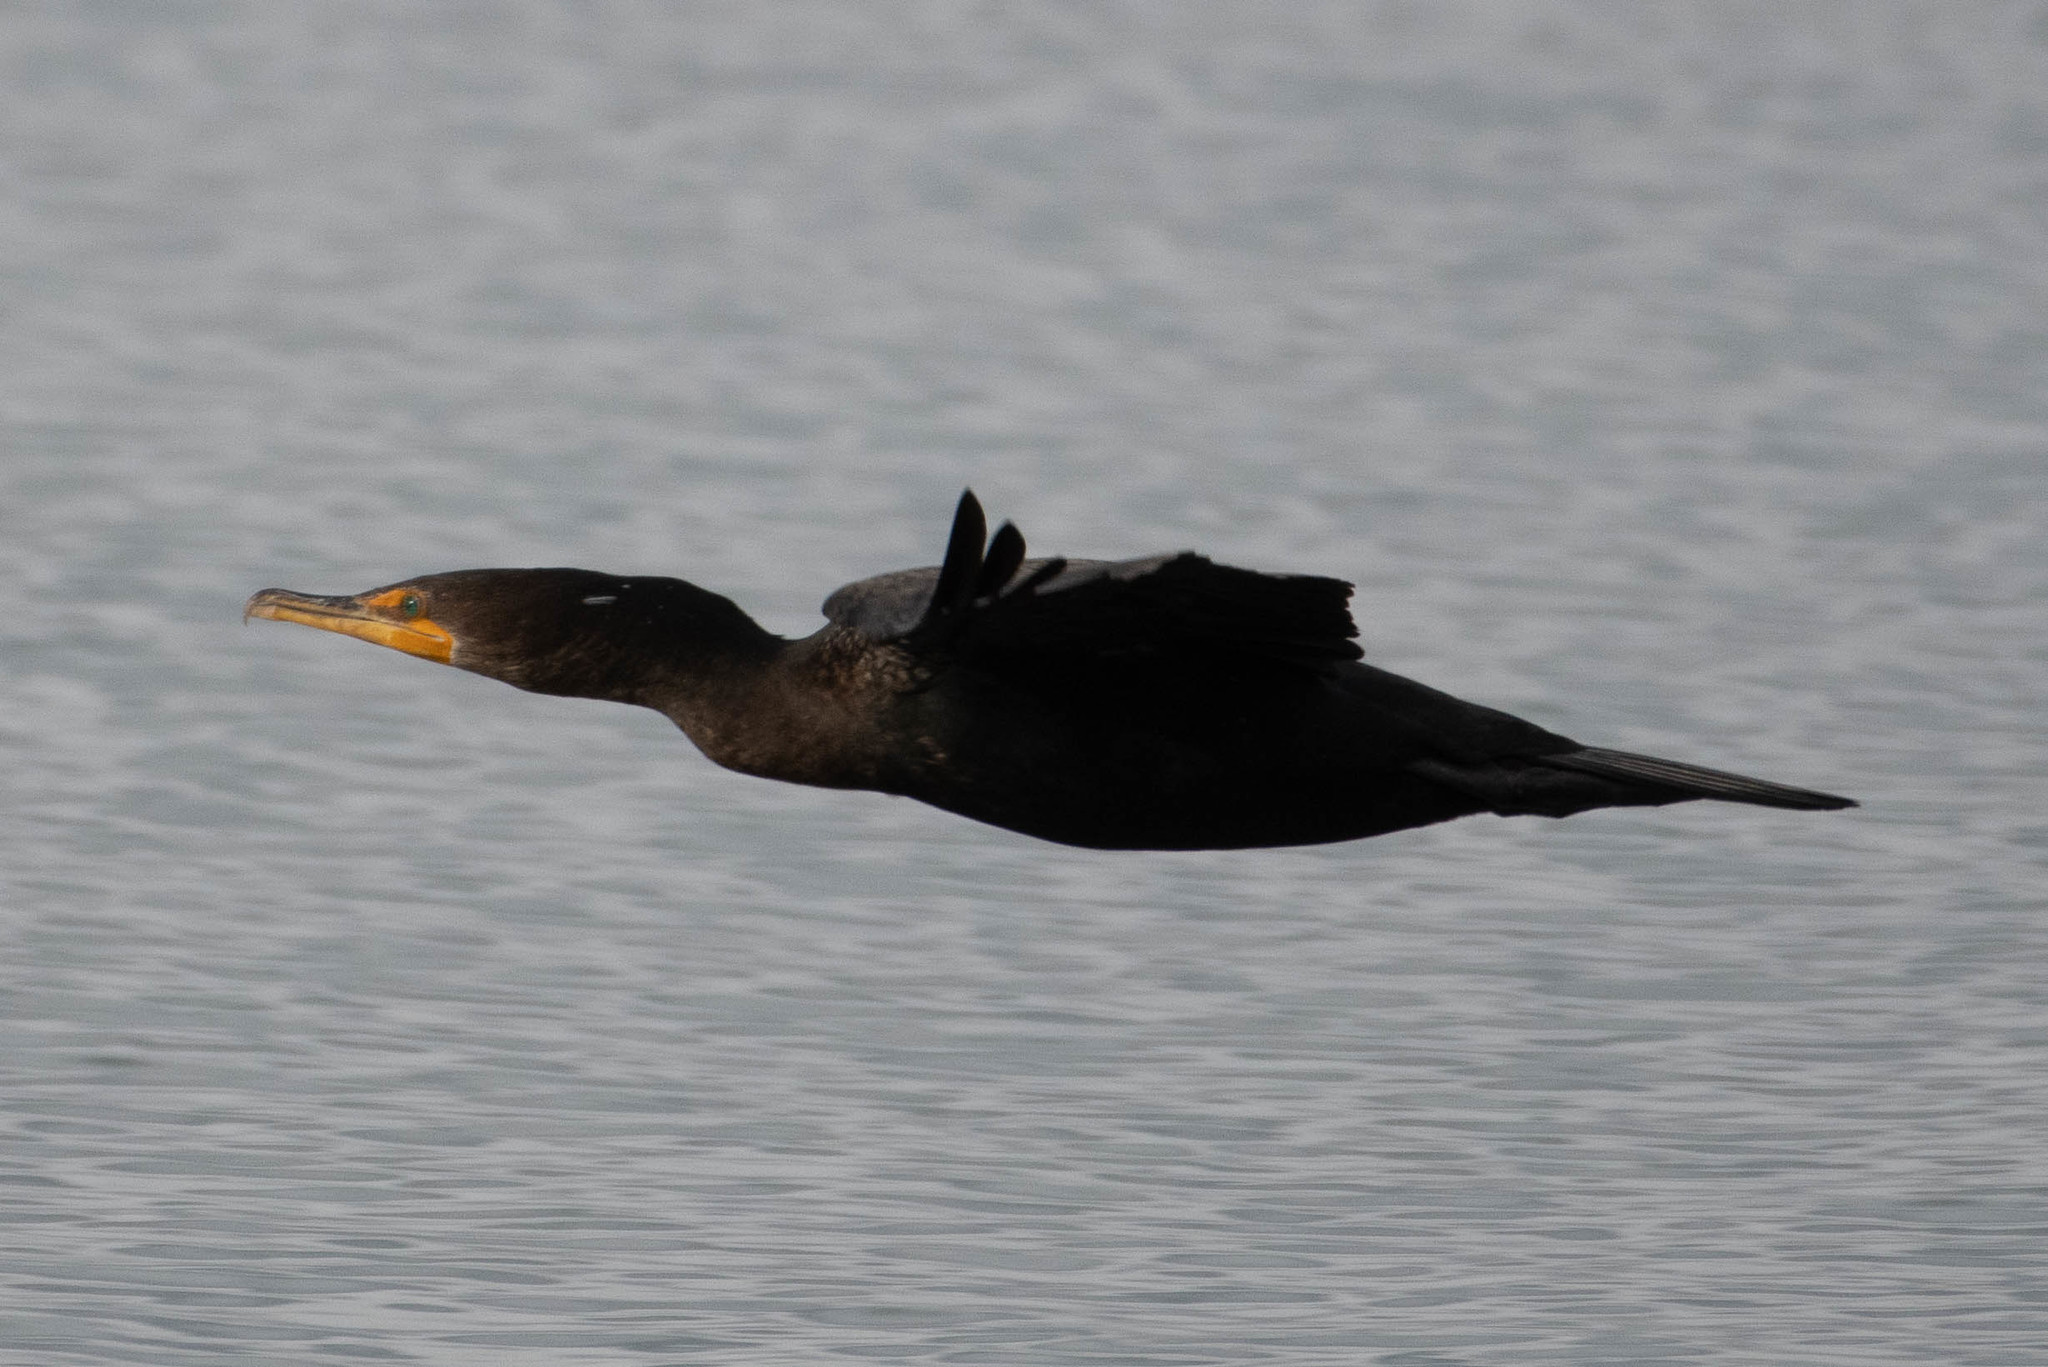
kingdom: Animalia
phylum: Chordata
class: Aves
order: Suliformes
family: Phalacrocoracidae
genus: Phalacrocorax
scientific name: Phalacrocorax auritus
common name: Double-crested cormorant
